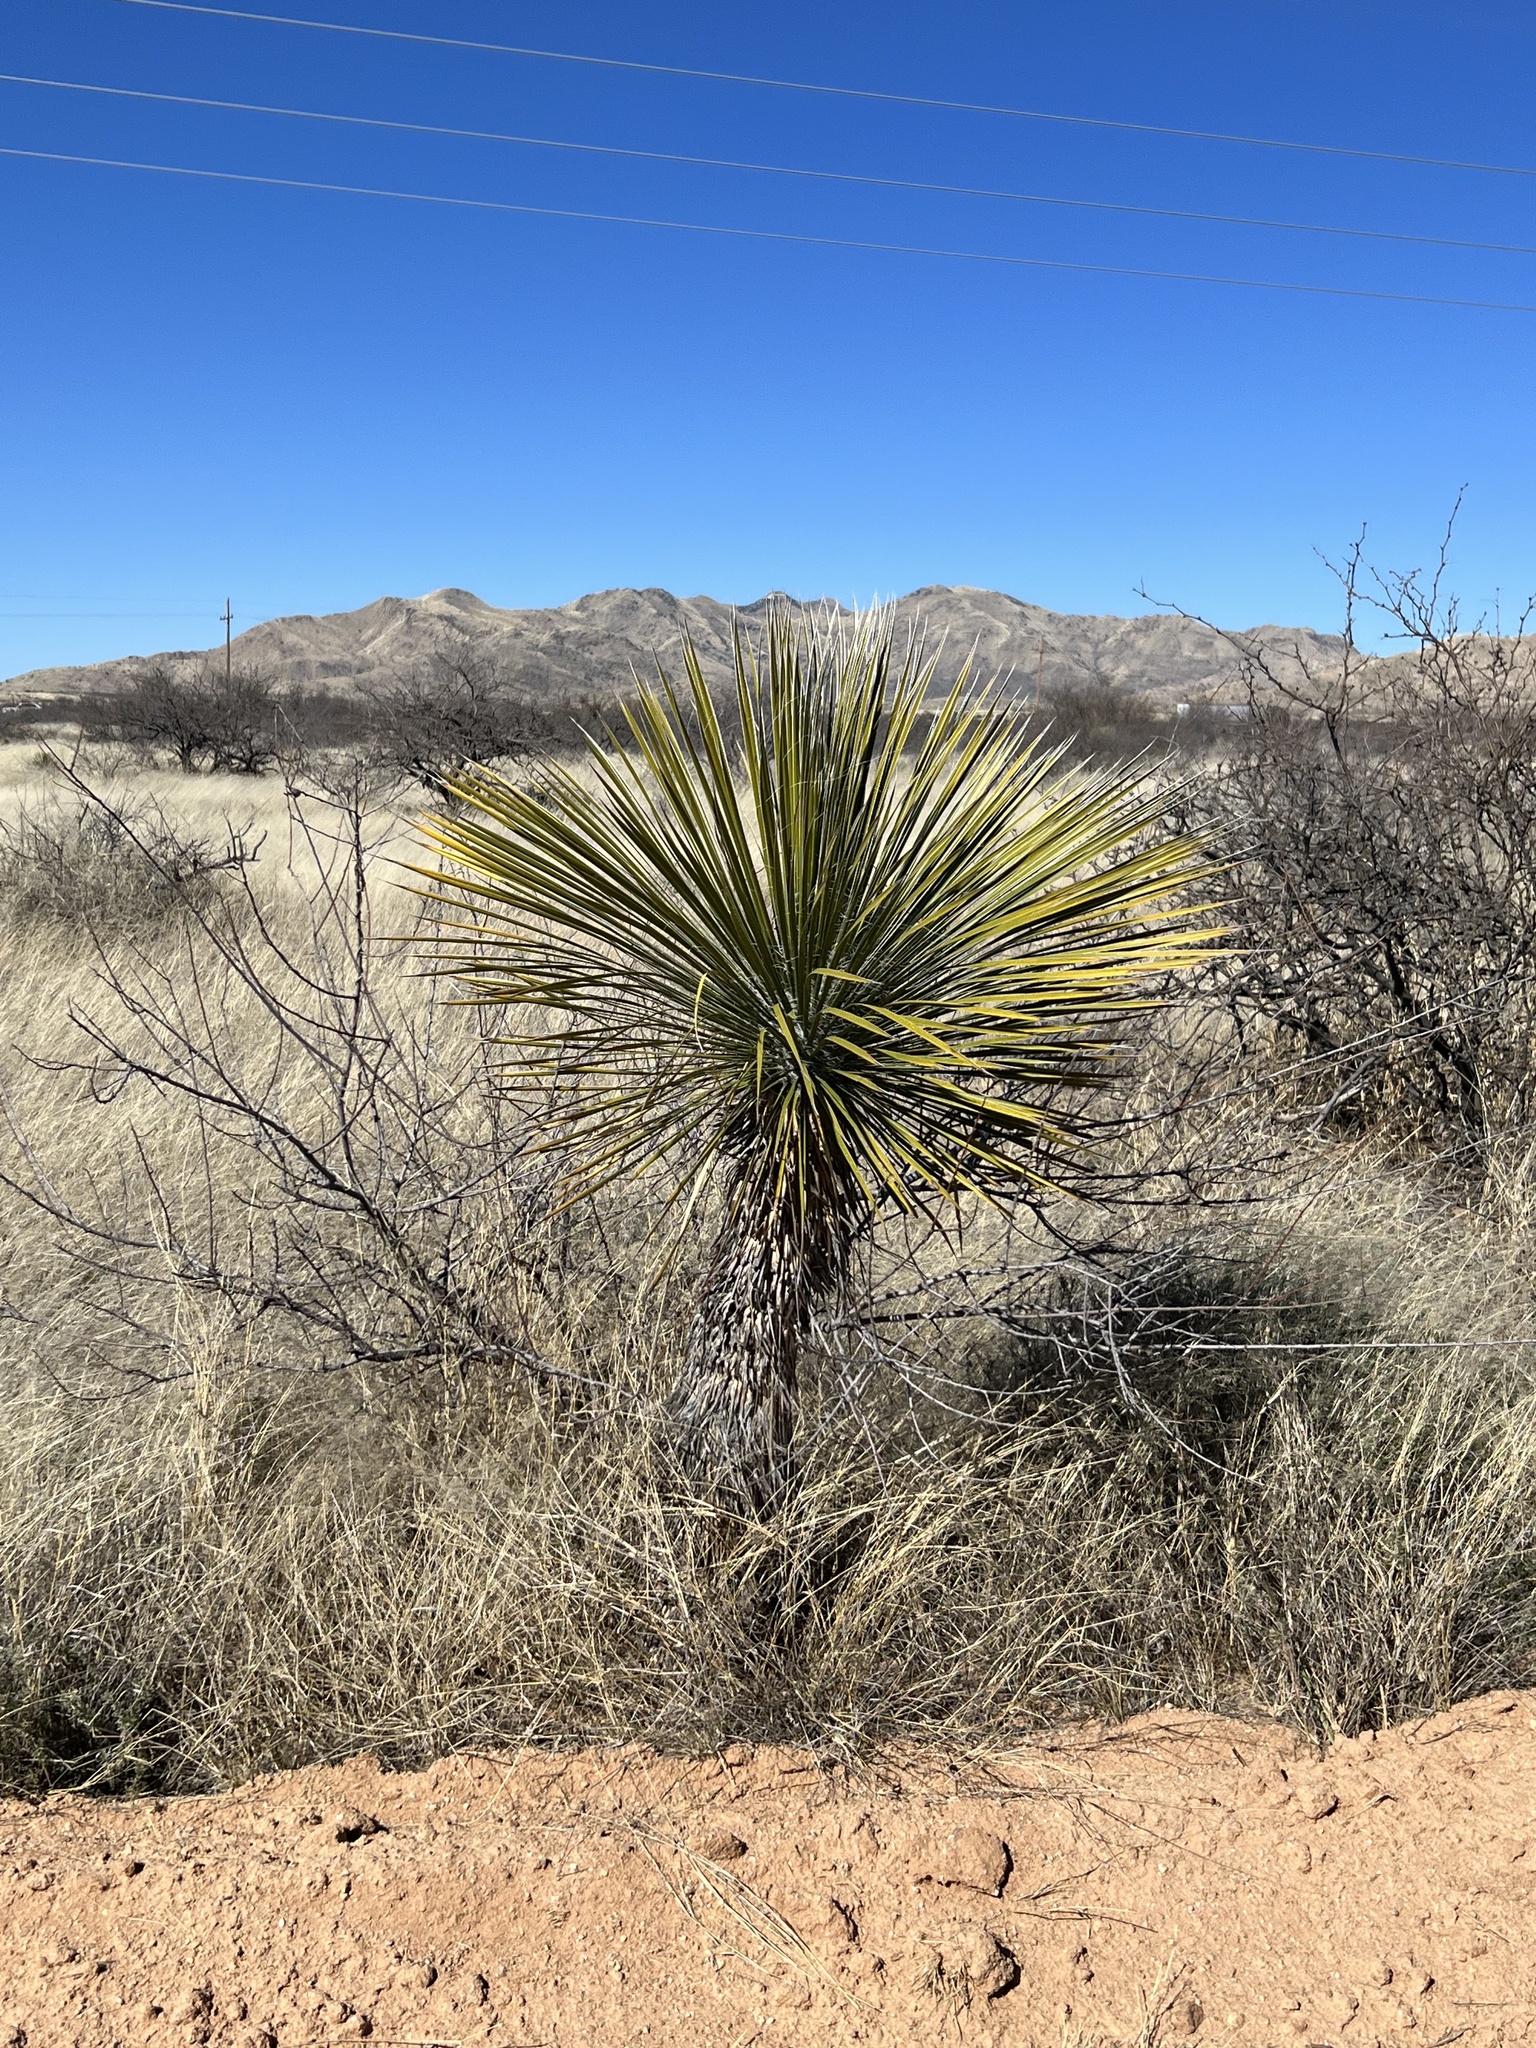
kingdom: Plantae
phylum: Tracheophyta
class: Liliopsida
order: Asparagales
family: Asparagaceae
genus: Yucca
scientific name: Yucca elata
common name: Palmella
